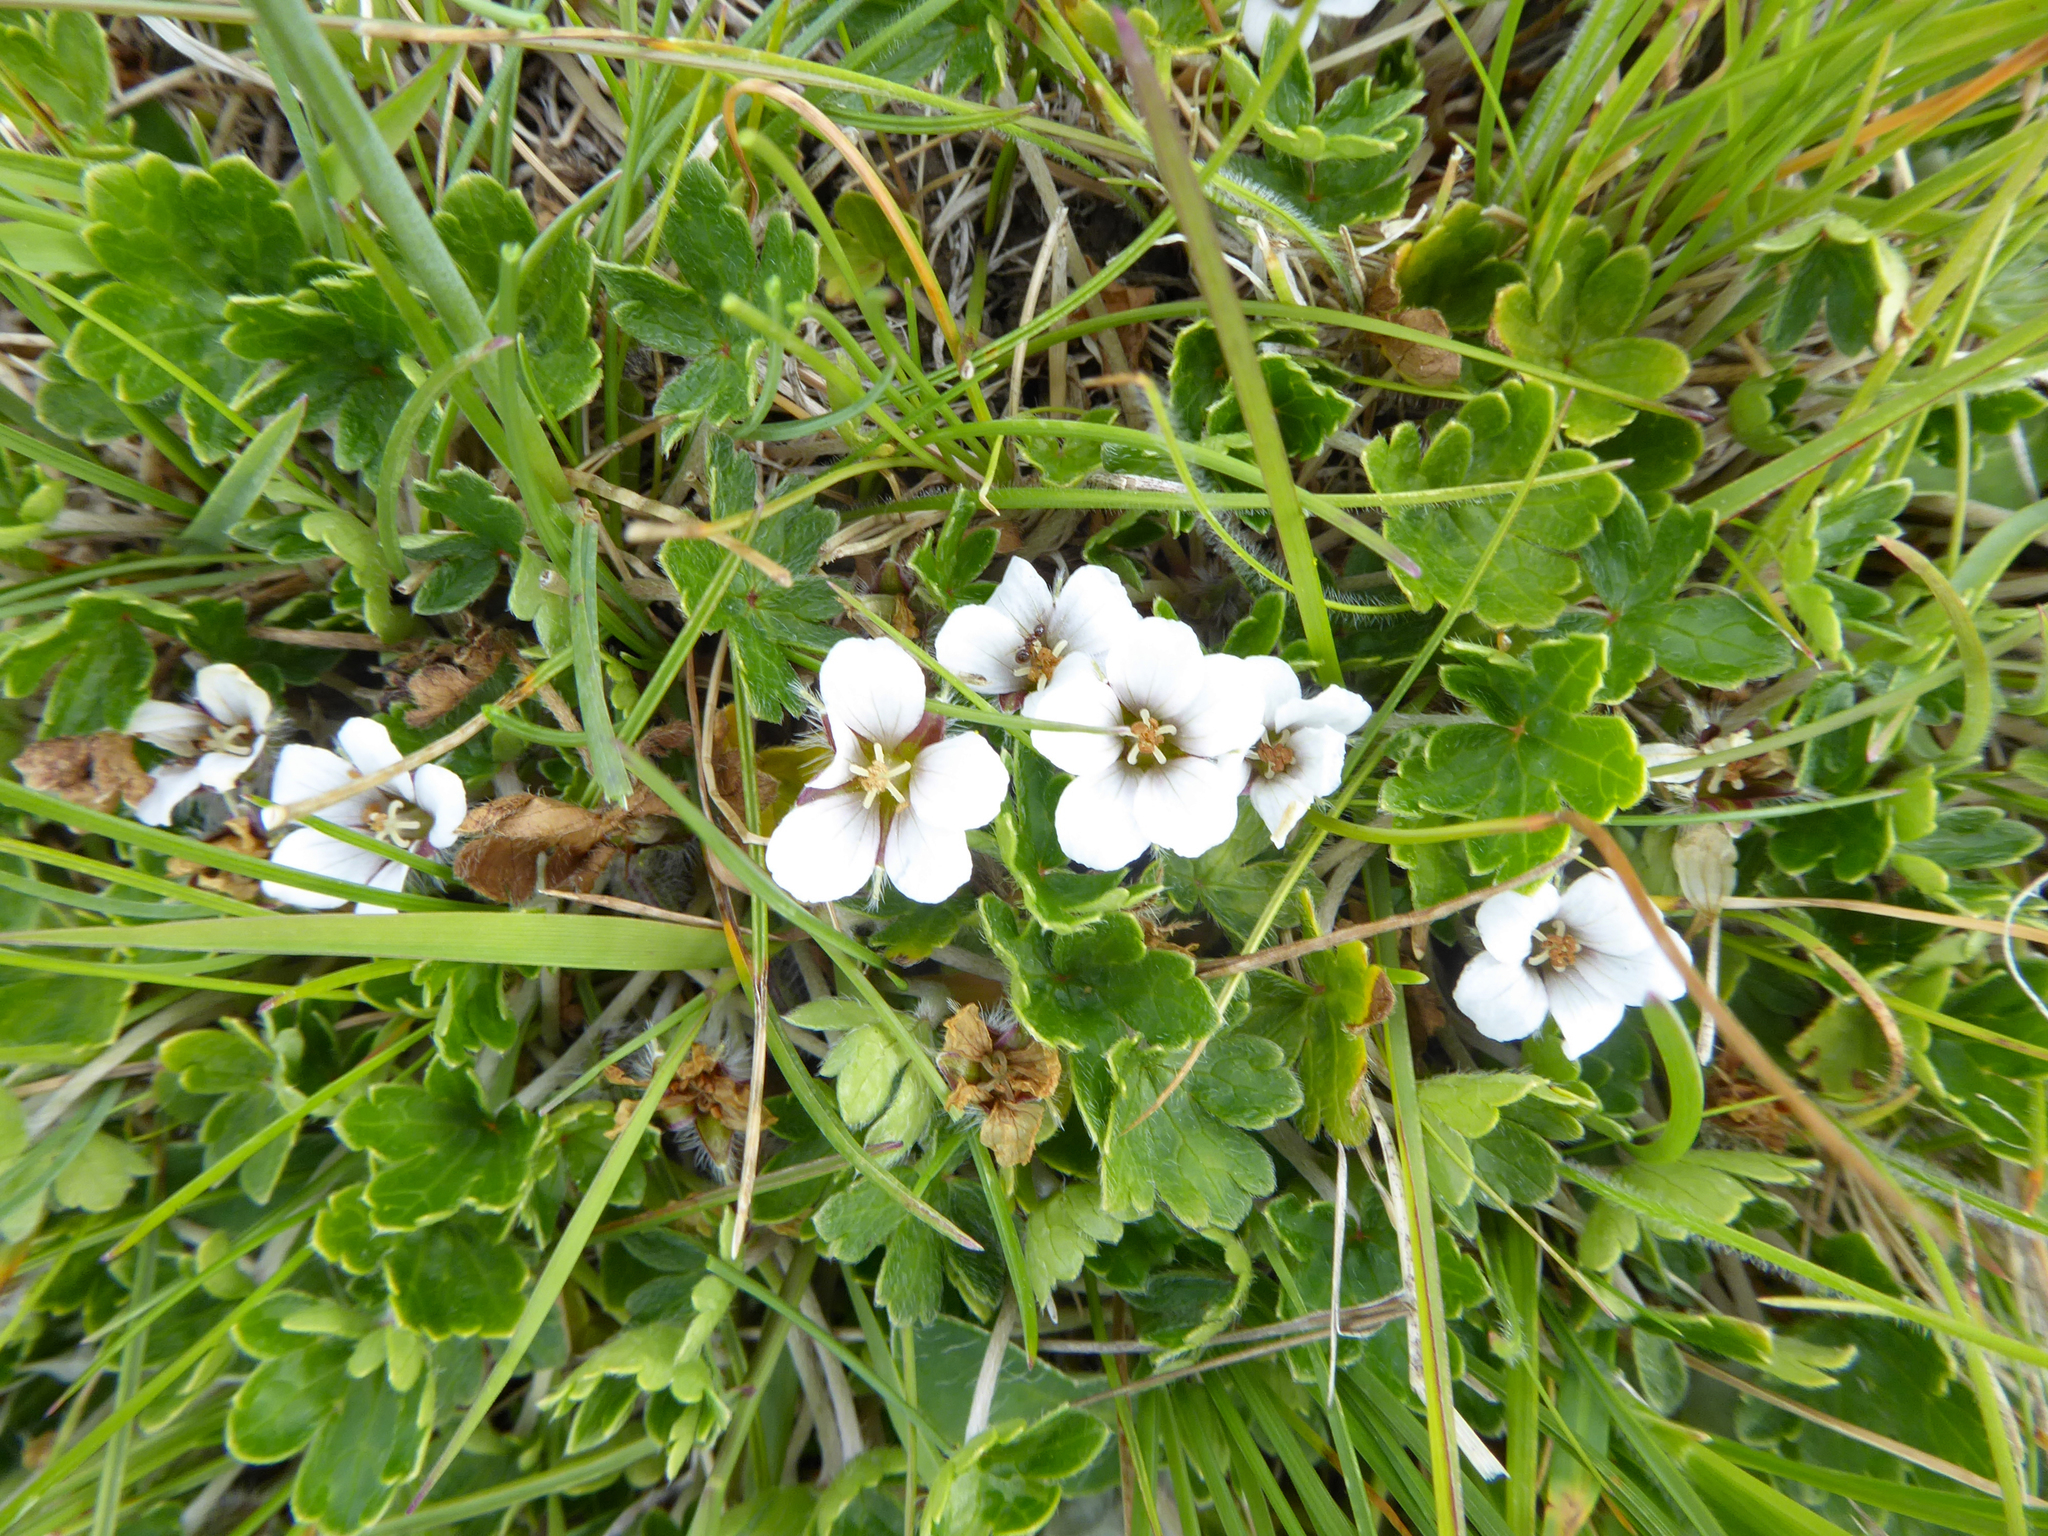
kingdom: Plantae
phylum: Tracheophyta
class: Magnoliopsida
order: Geraniales
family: Geraniaceae
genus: Geranium
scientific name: Geranium brevicaule
